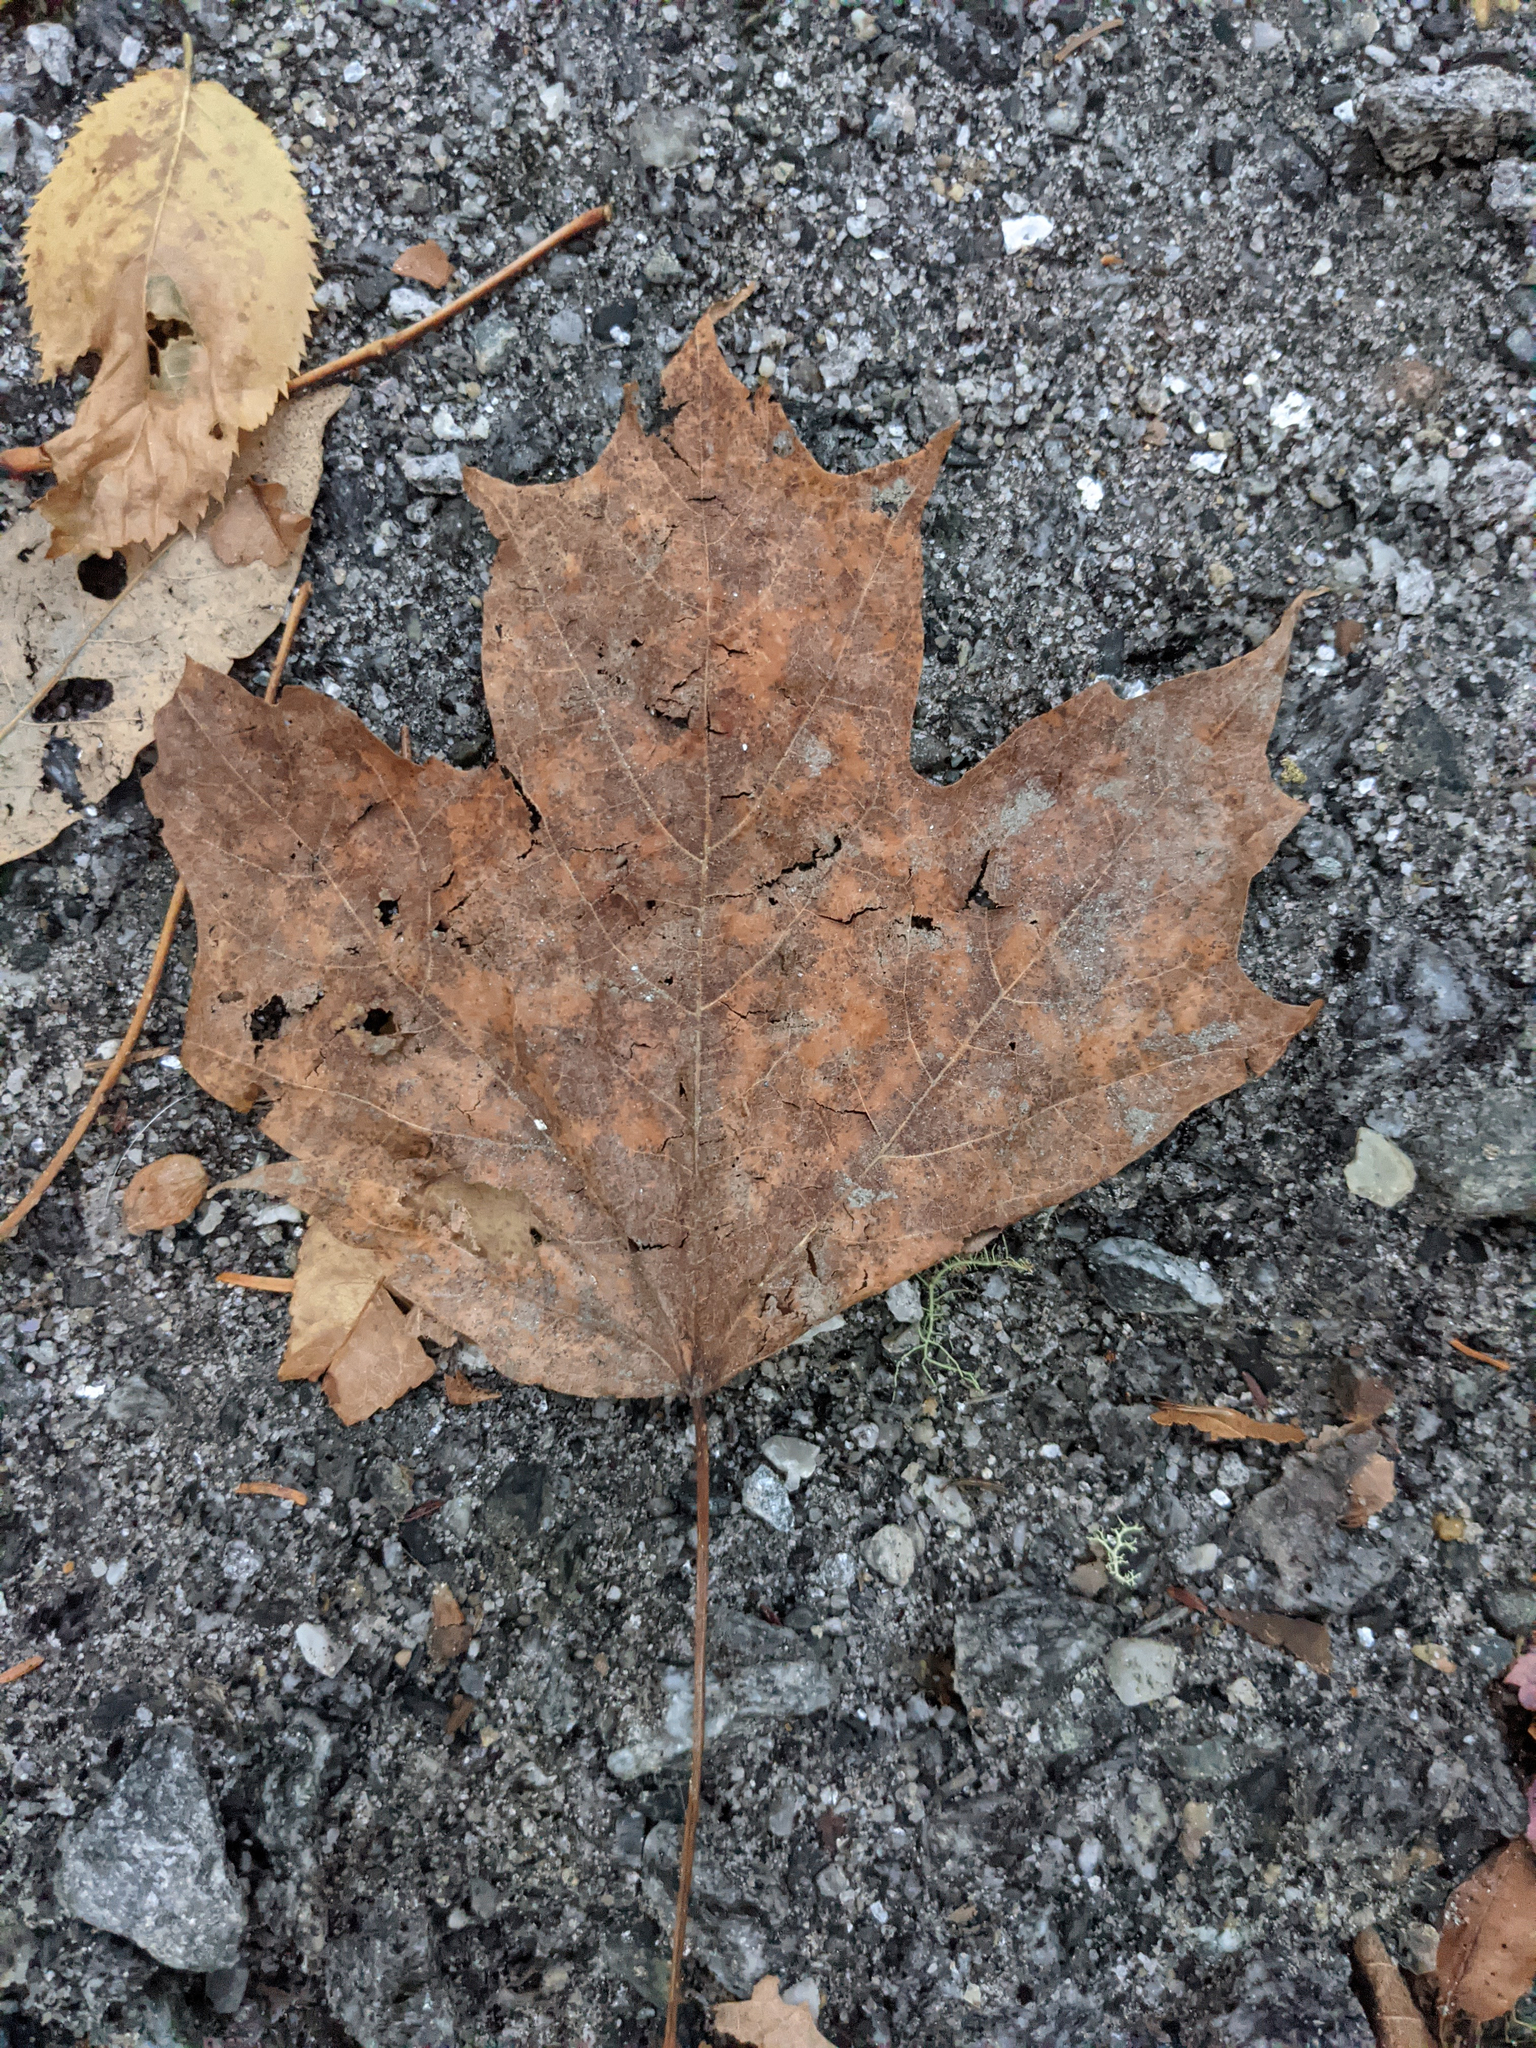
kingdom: Plantae
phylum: Tracheophyta
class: Magnoliopsida
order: Sapindales
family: Sapindaceae
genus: Acer
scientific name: Acer saccharum
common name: Sugar maple
